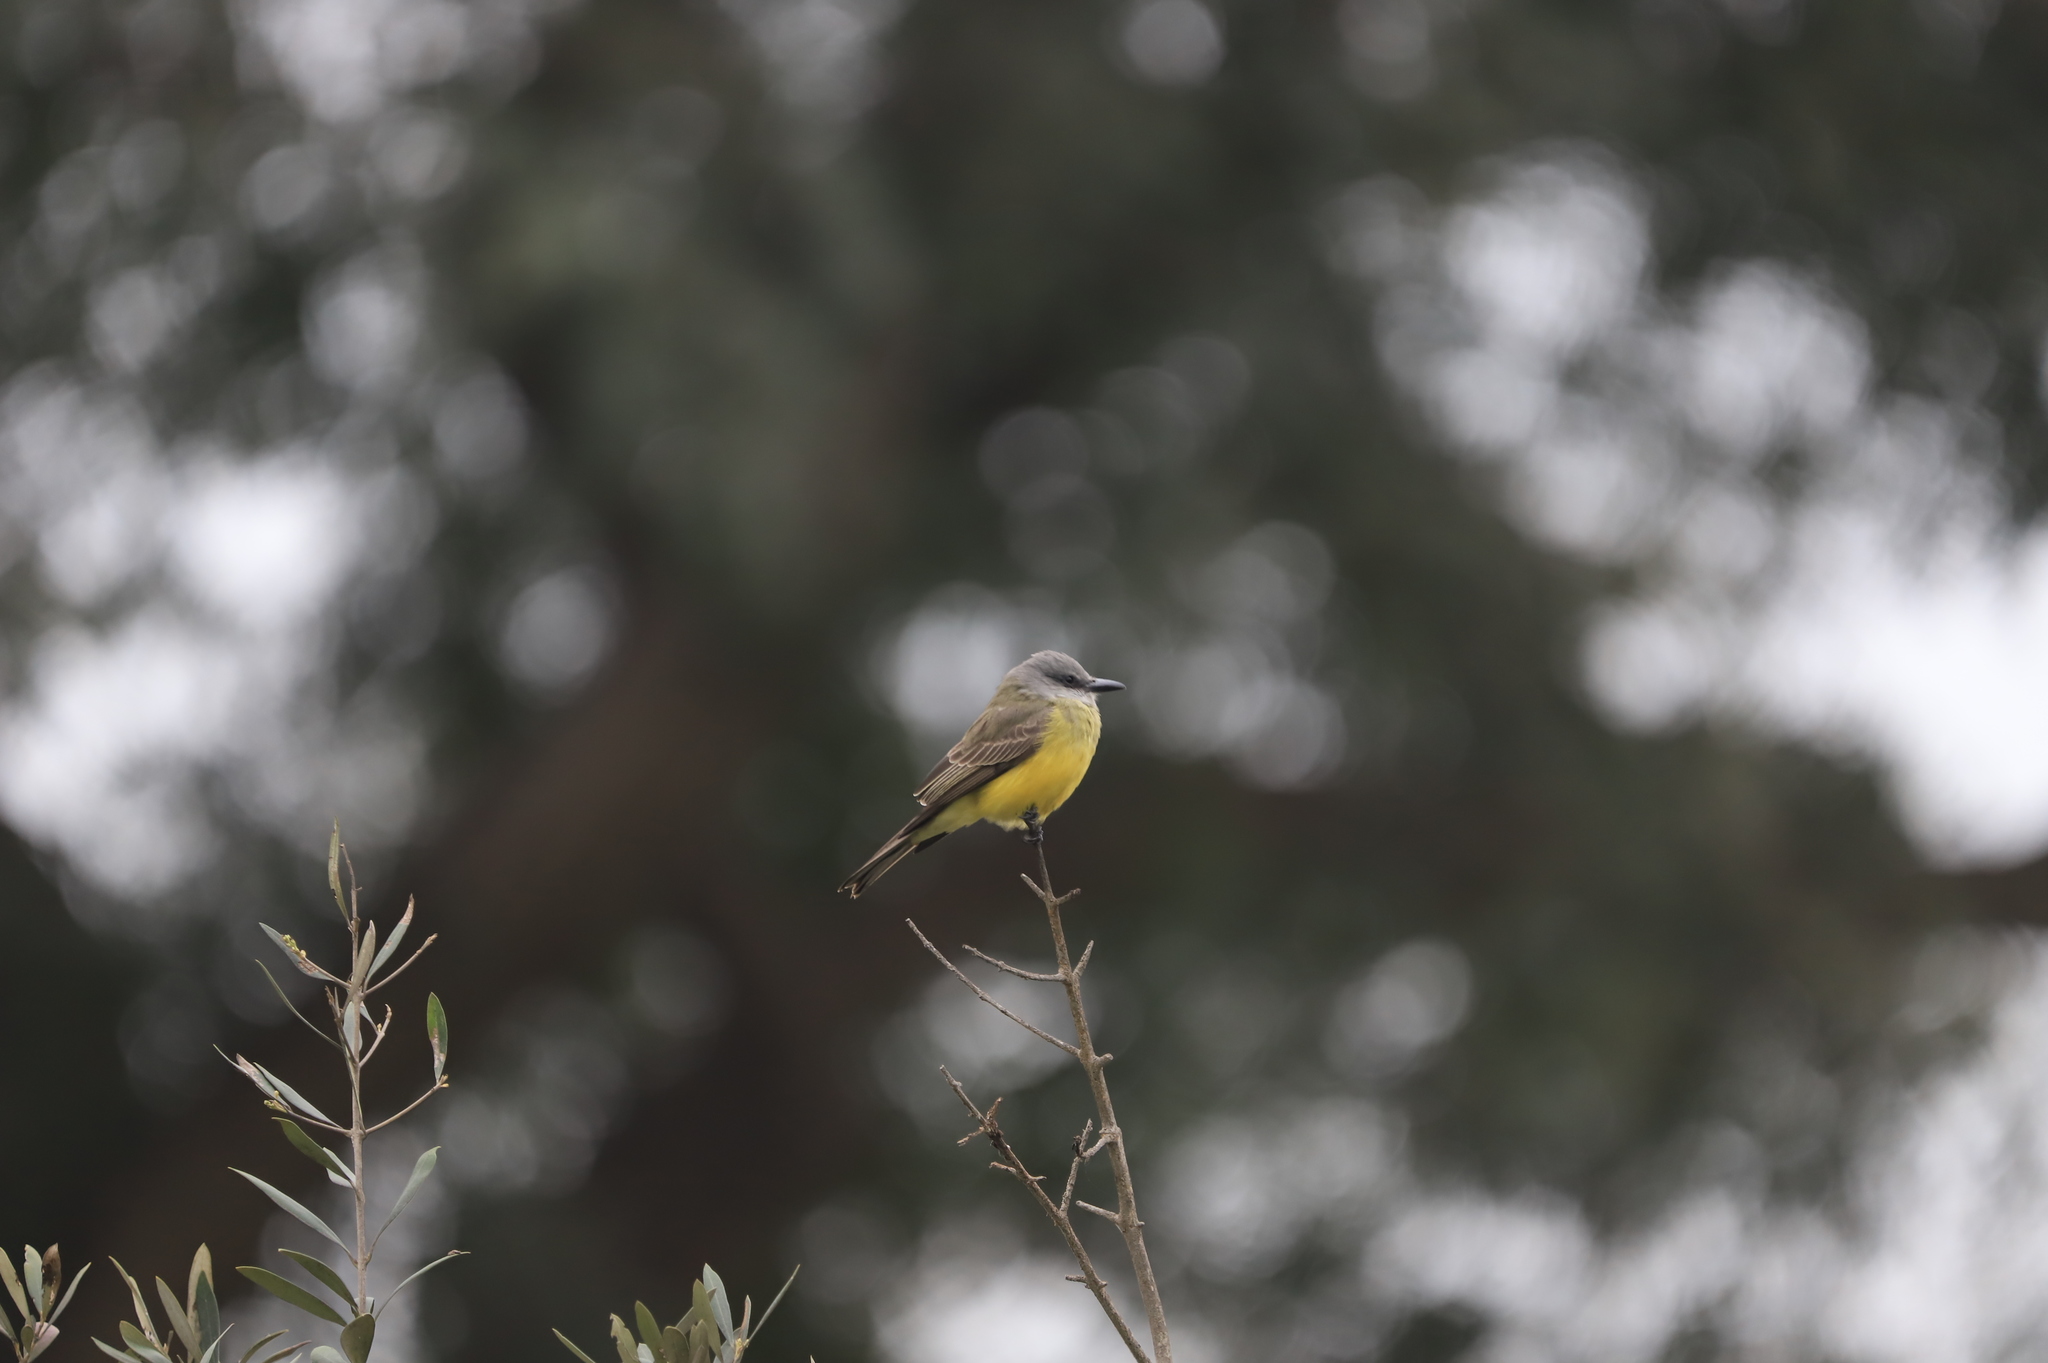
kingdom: Animalia
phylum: Chordata
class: Aves
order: Passeriformes
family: Tyrannidae
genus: Tyrannus
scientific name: Tyrannus melancholicus
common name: Tropical kingbird
